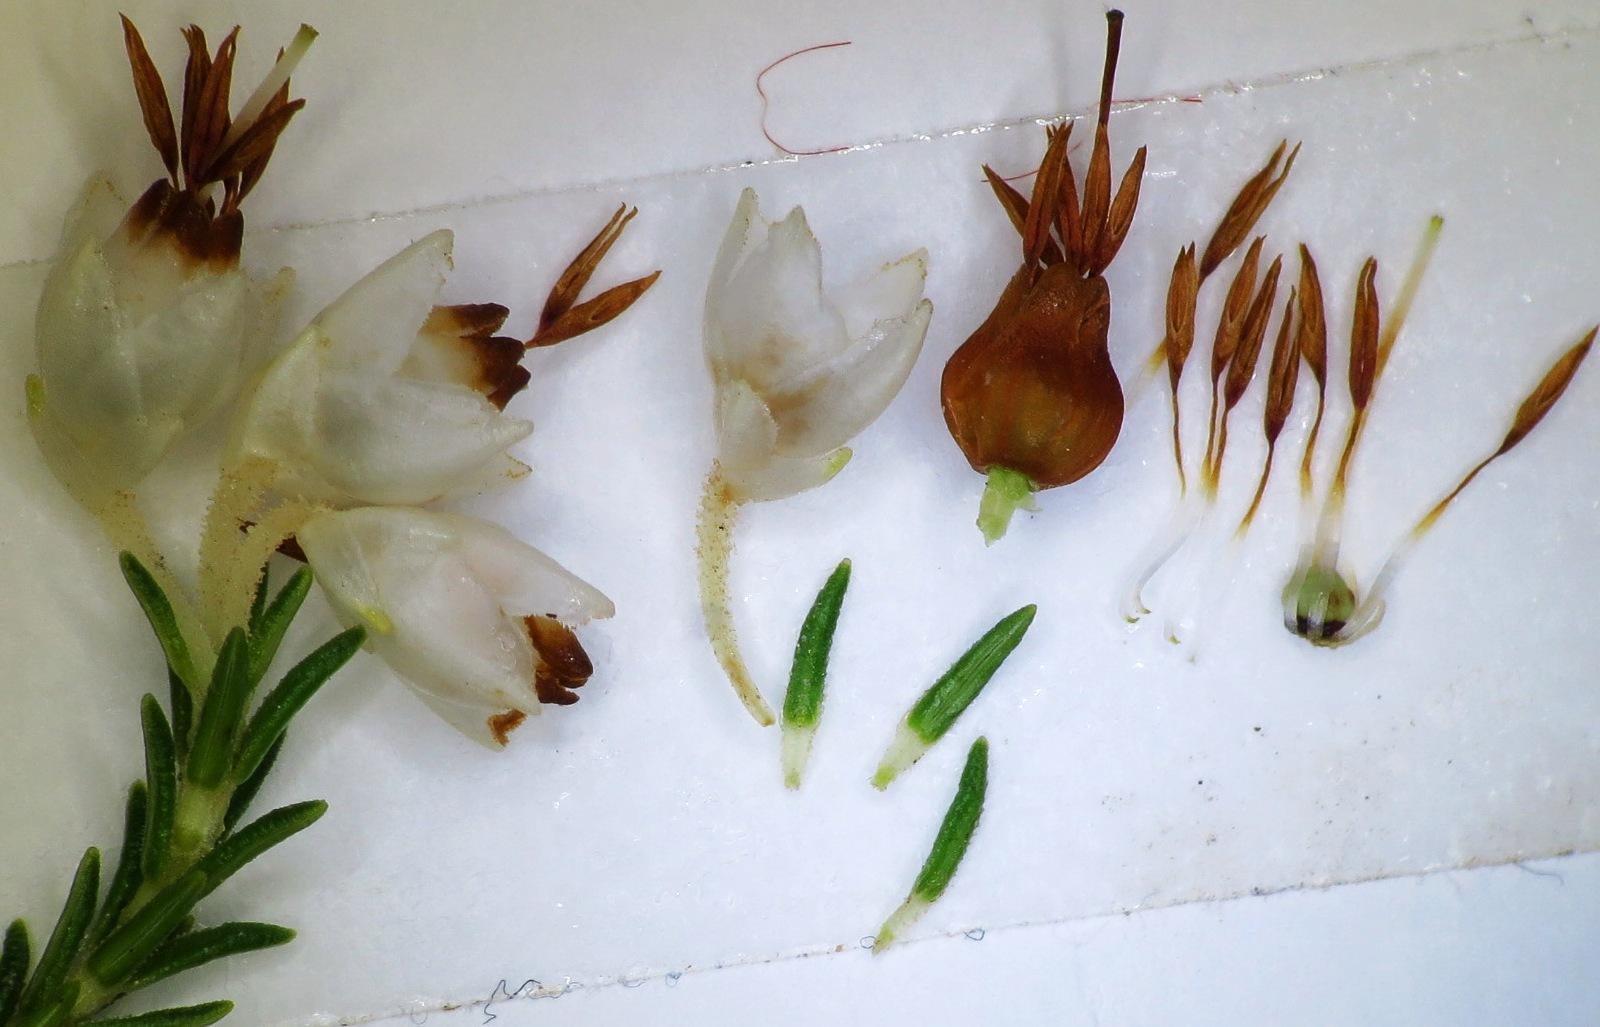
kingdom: Plantae
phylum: Tracheophyta
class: Magnoliopsida
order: Ericales
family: Ericaceae
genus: Erica
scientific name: Erica penicilliformis
